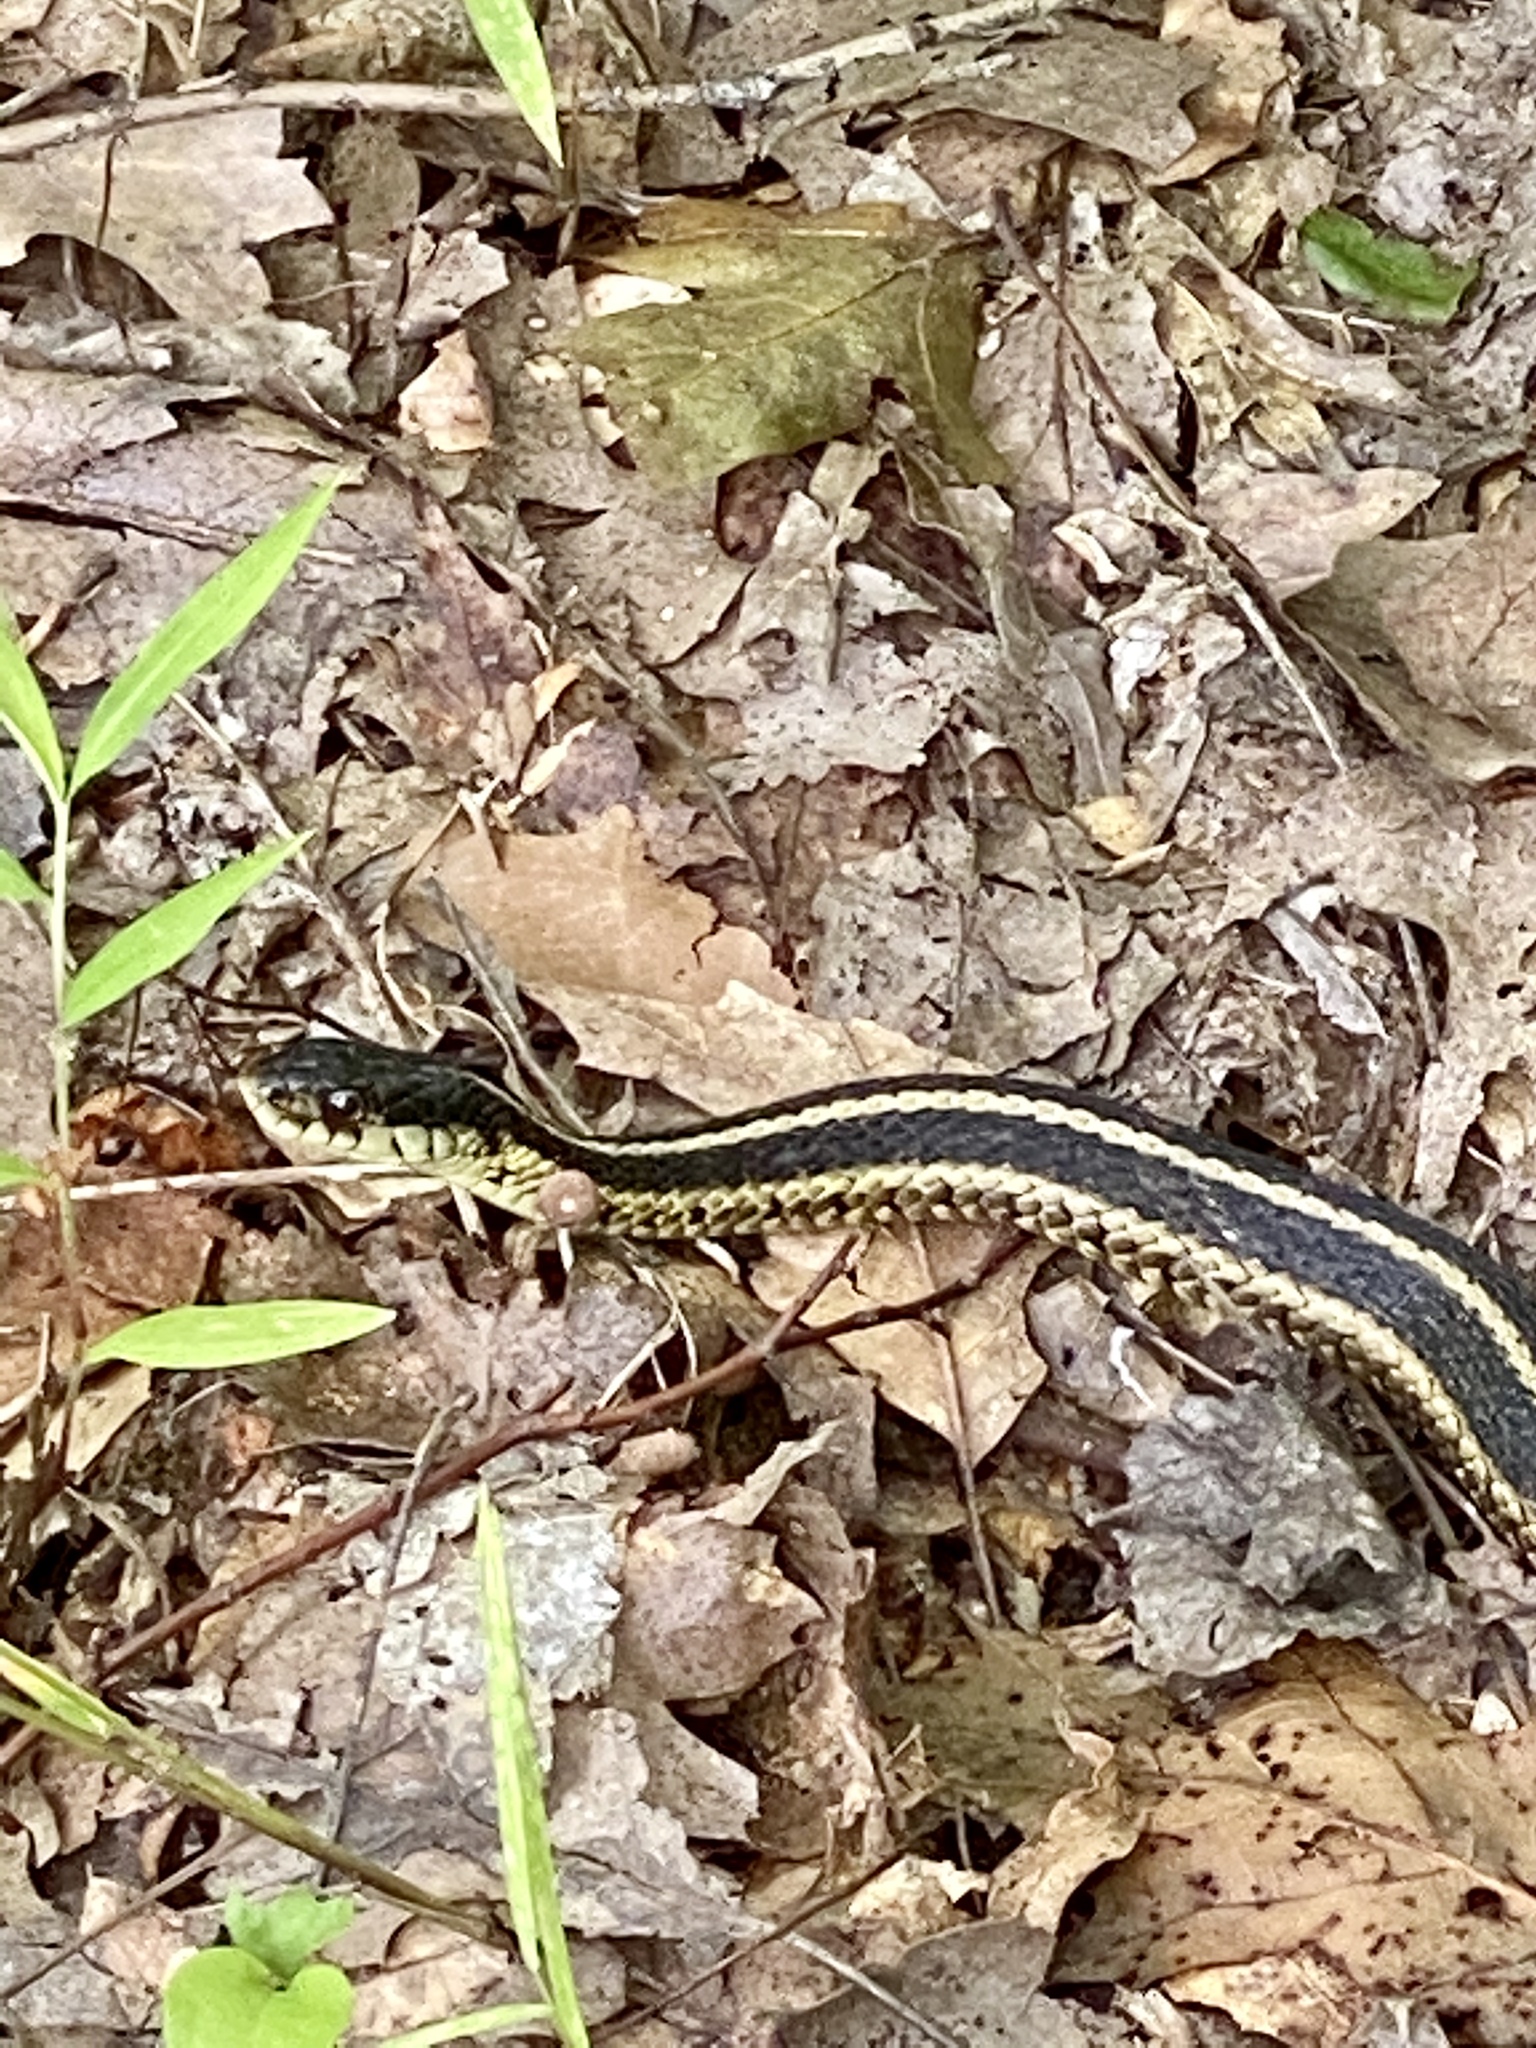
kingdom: Animalia
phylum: Chordata
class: Squamata
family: Colubridae
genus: Thamnophis
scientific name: Thamnophis sirtalis
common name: Common garter snake
